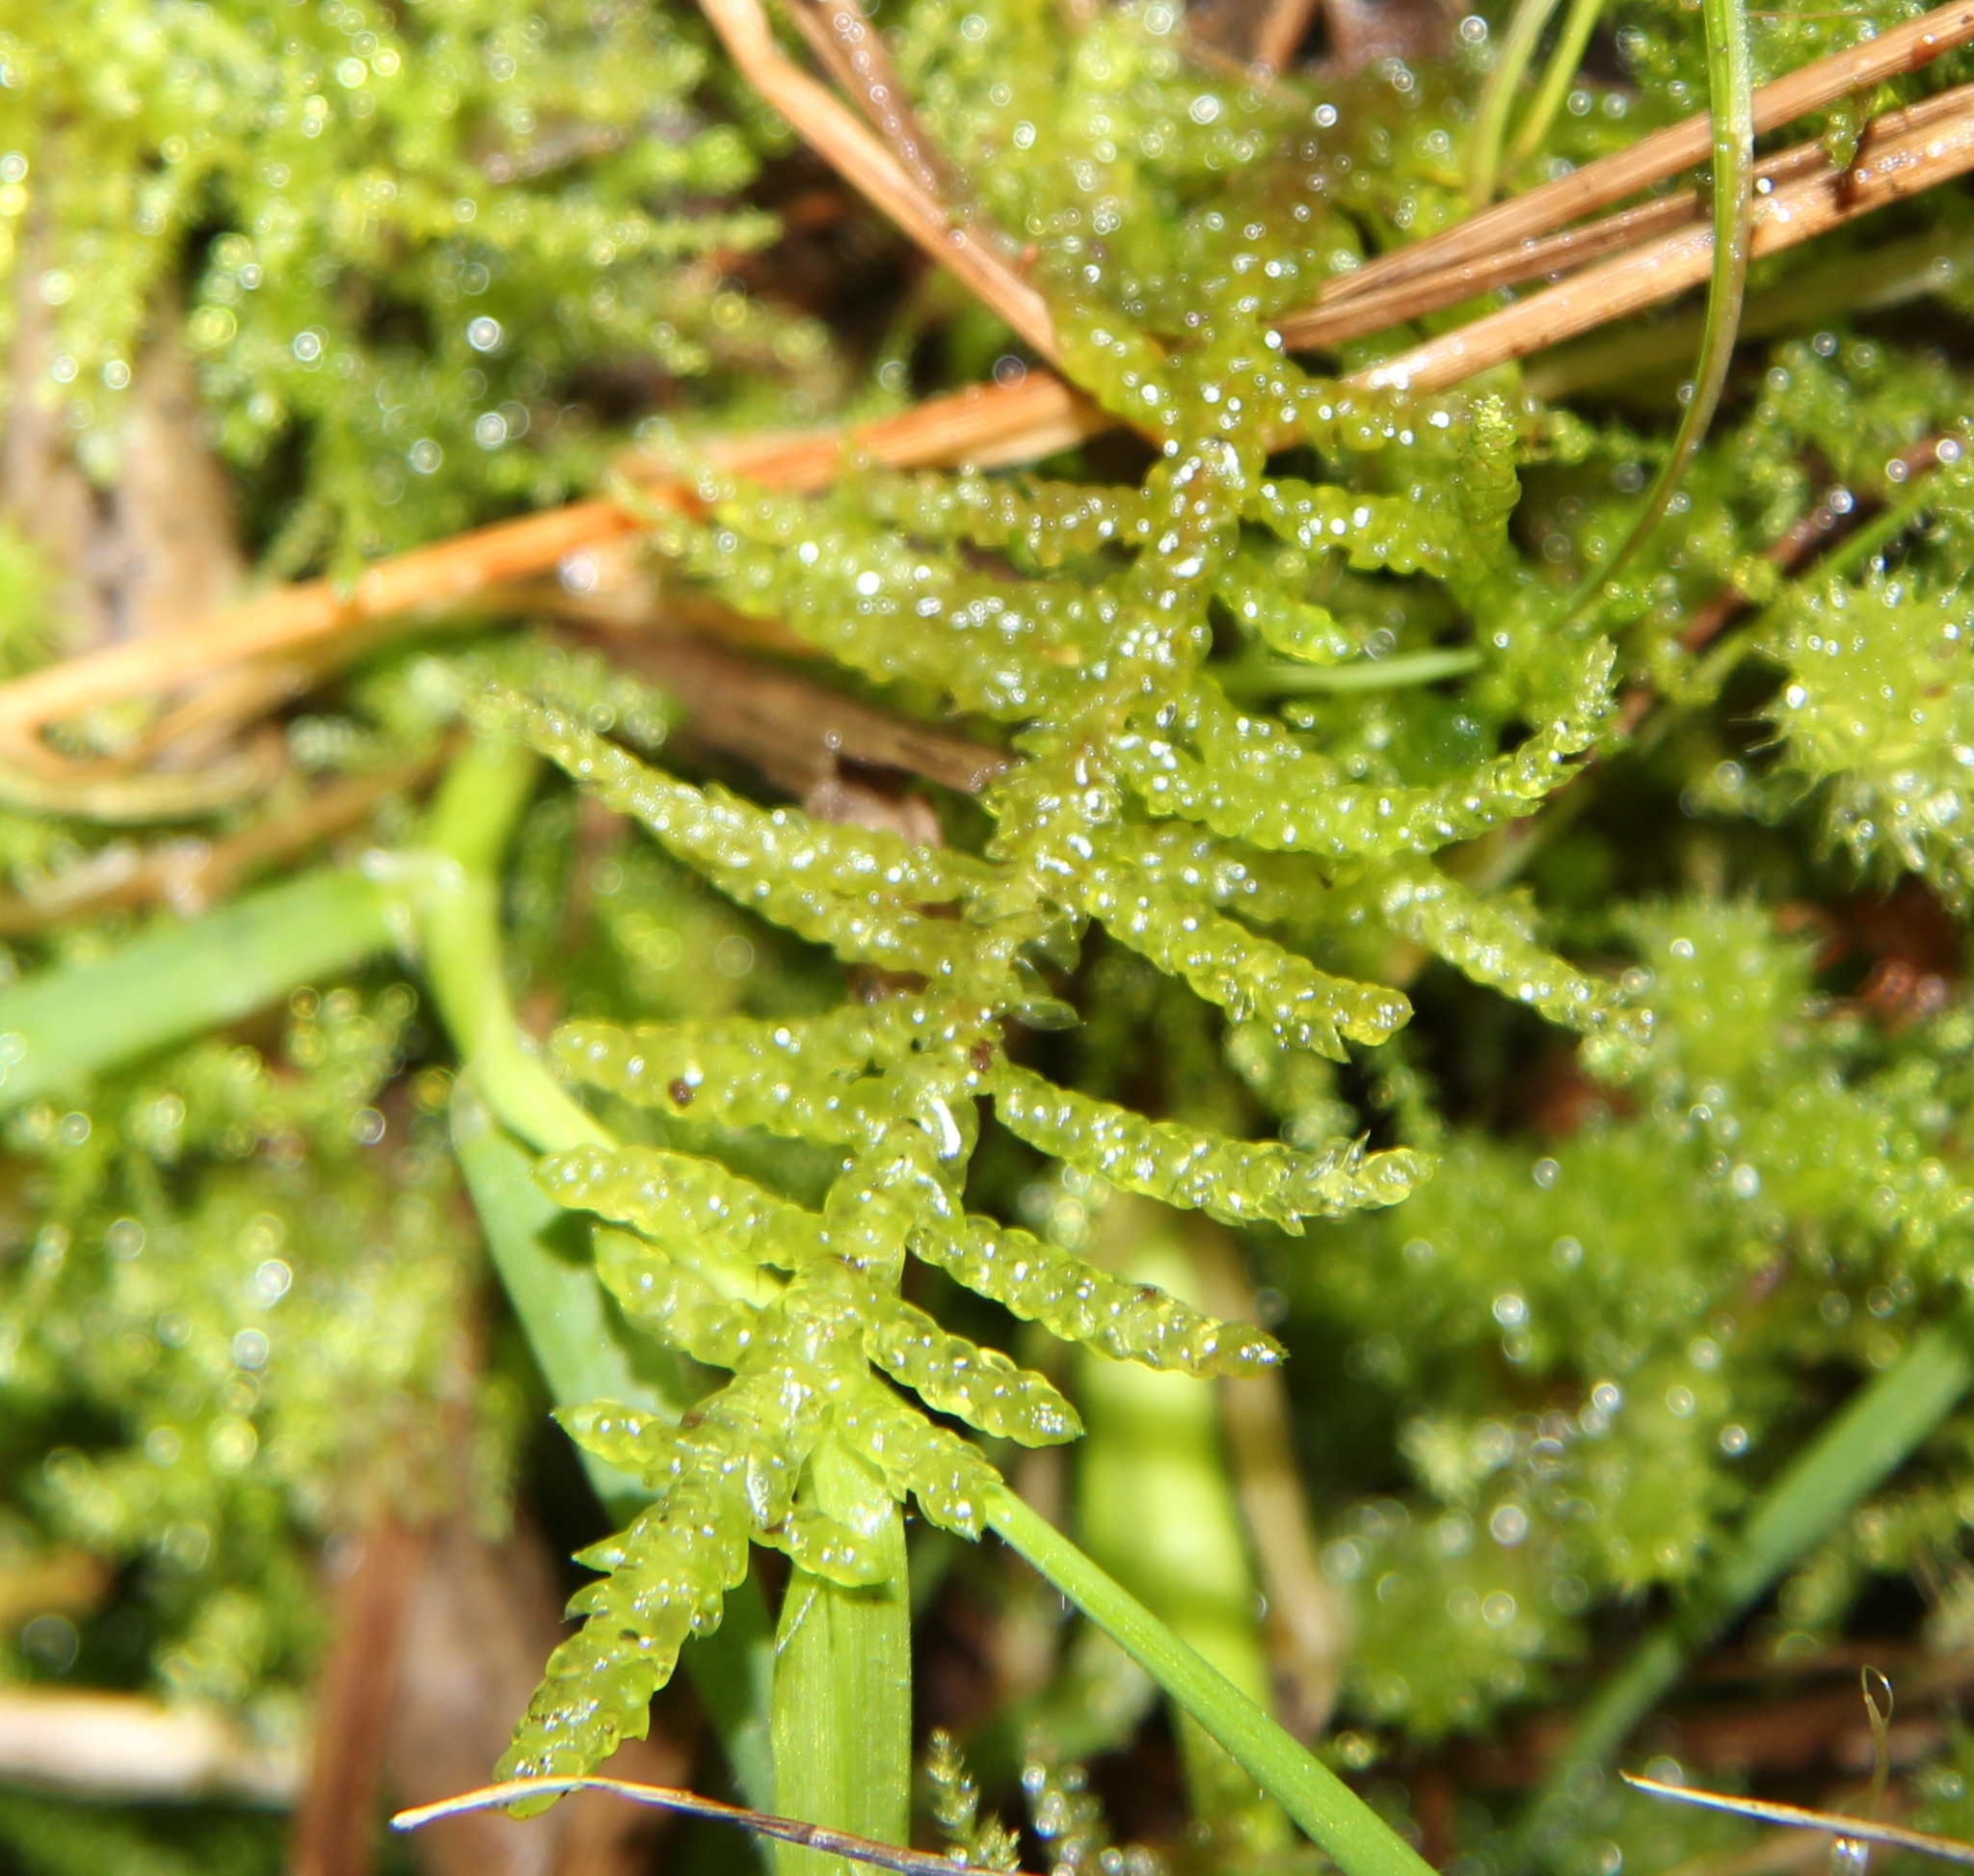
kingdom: Plantae
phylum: Bryophyta
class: Bryopsida
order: Hypnales
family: Brachytheciaceae
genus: Pseudoscleropodium
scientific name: Pseudoscleropodium purum
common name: Neat feather-moss
